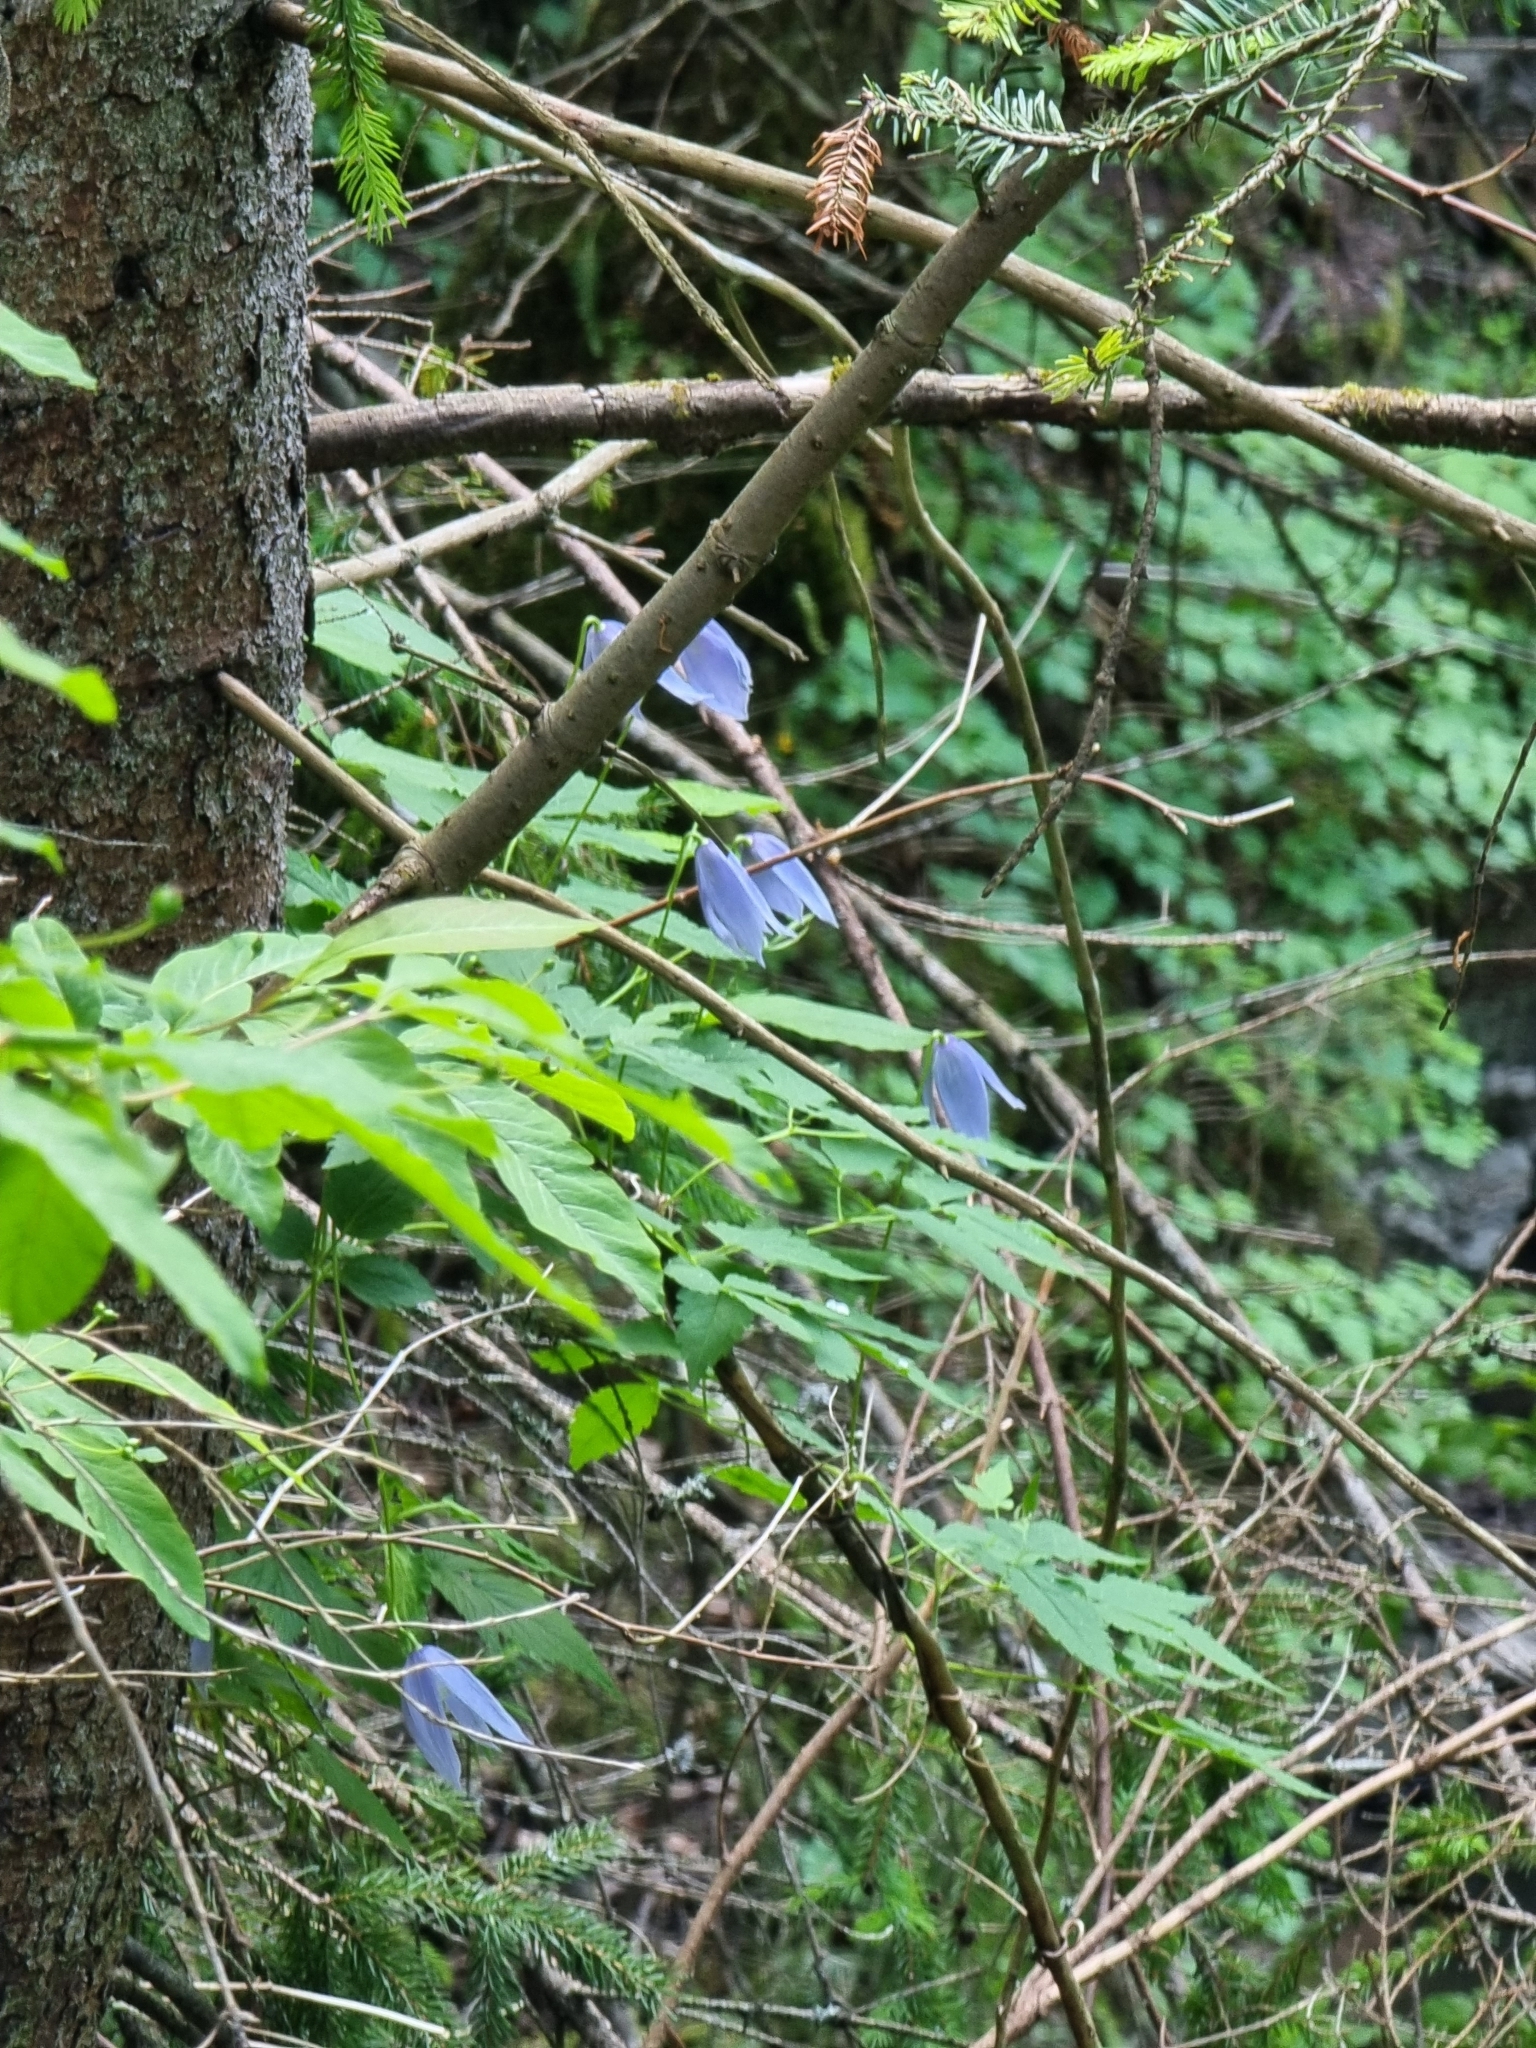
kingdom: Plantae
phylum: Tracheophyta
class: Magnoliopsida
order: Ranunculales
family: Ranunculaceae
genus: Clematis
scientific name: Clematis alpina
